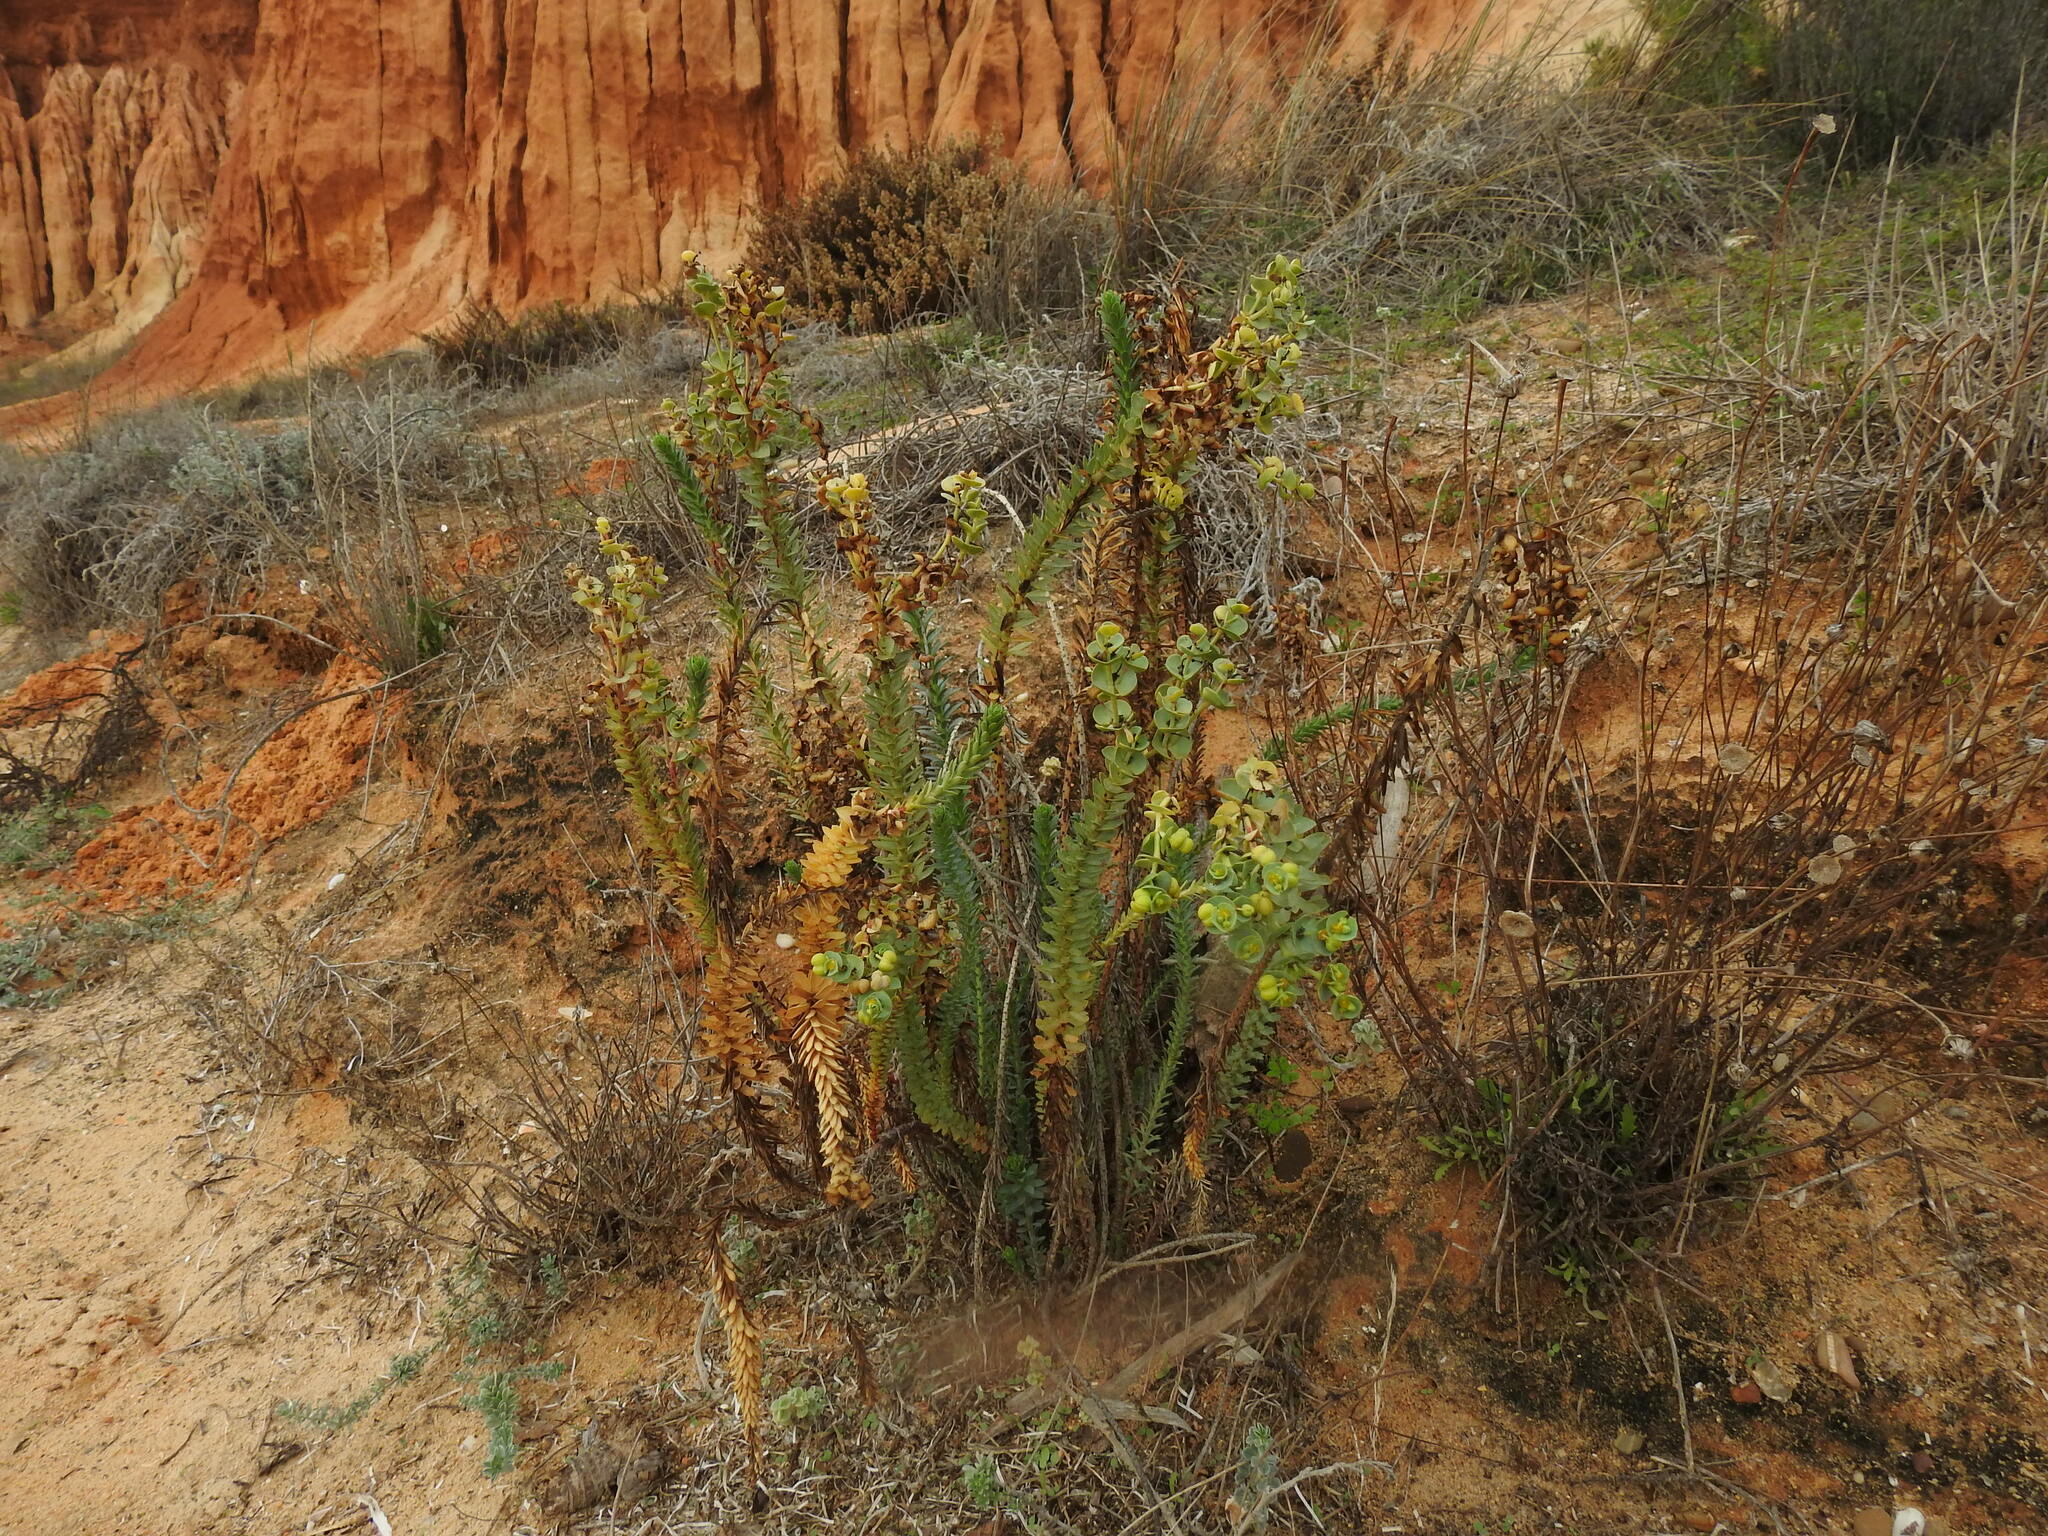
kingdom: Plantae
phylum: Tracheophyta
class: Magnoliopsida
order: Malpighiales
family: Euphorbiaceae
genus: Euphorbia
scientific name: Euphorbia paralias
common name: Sea spurge
